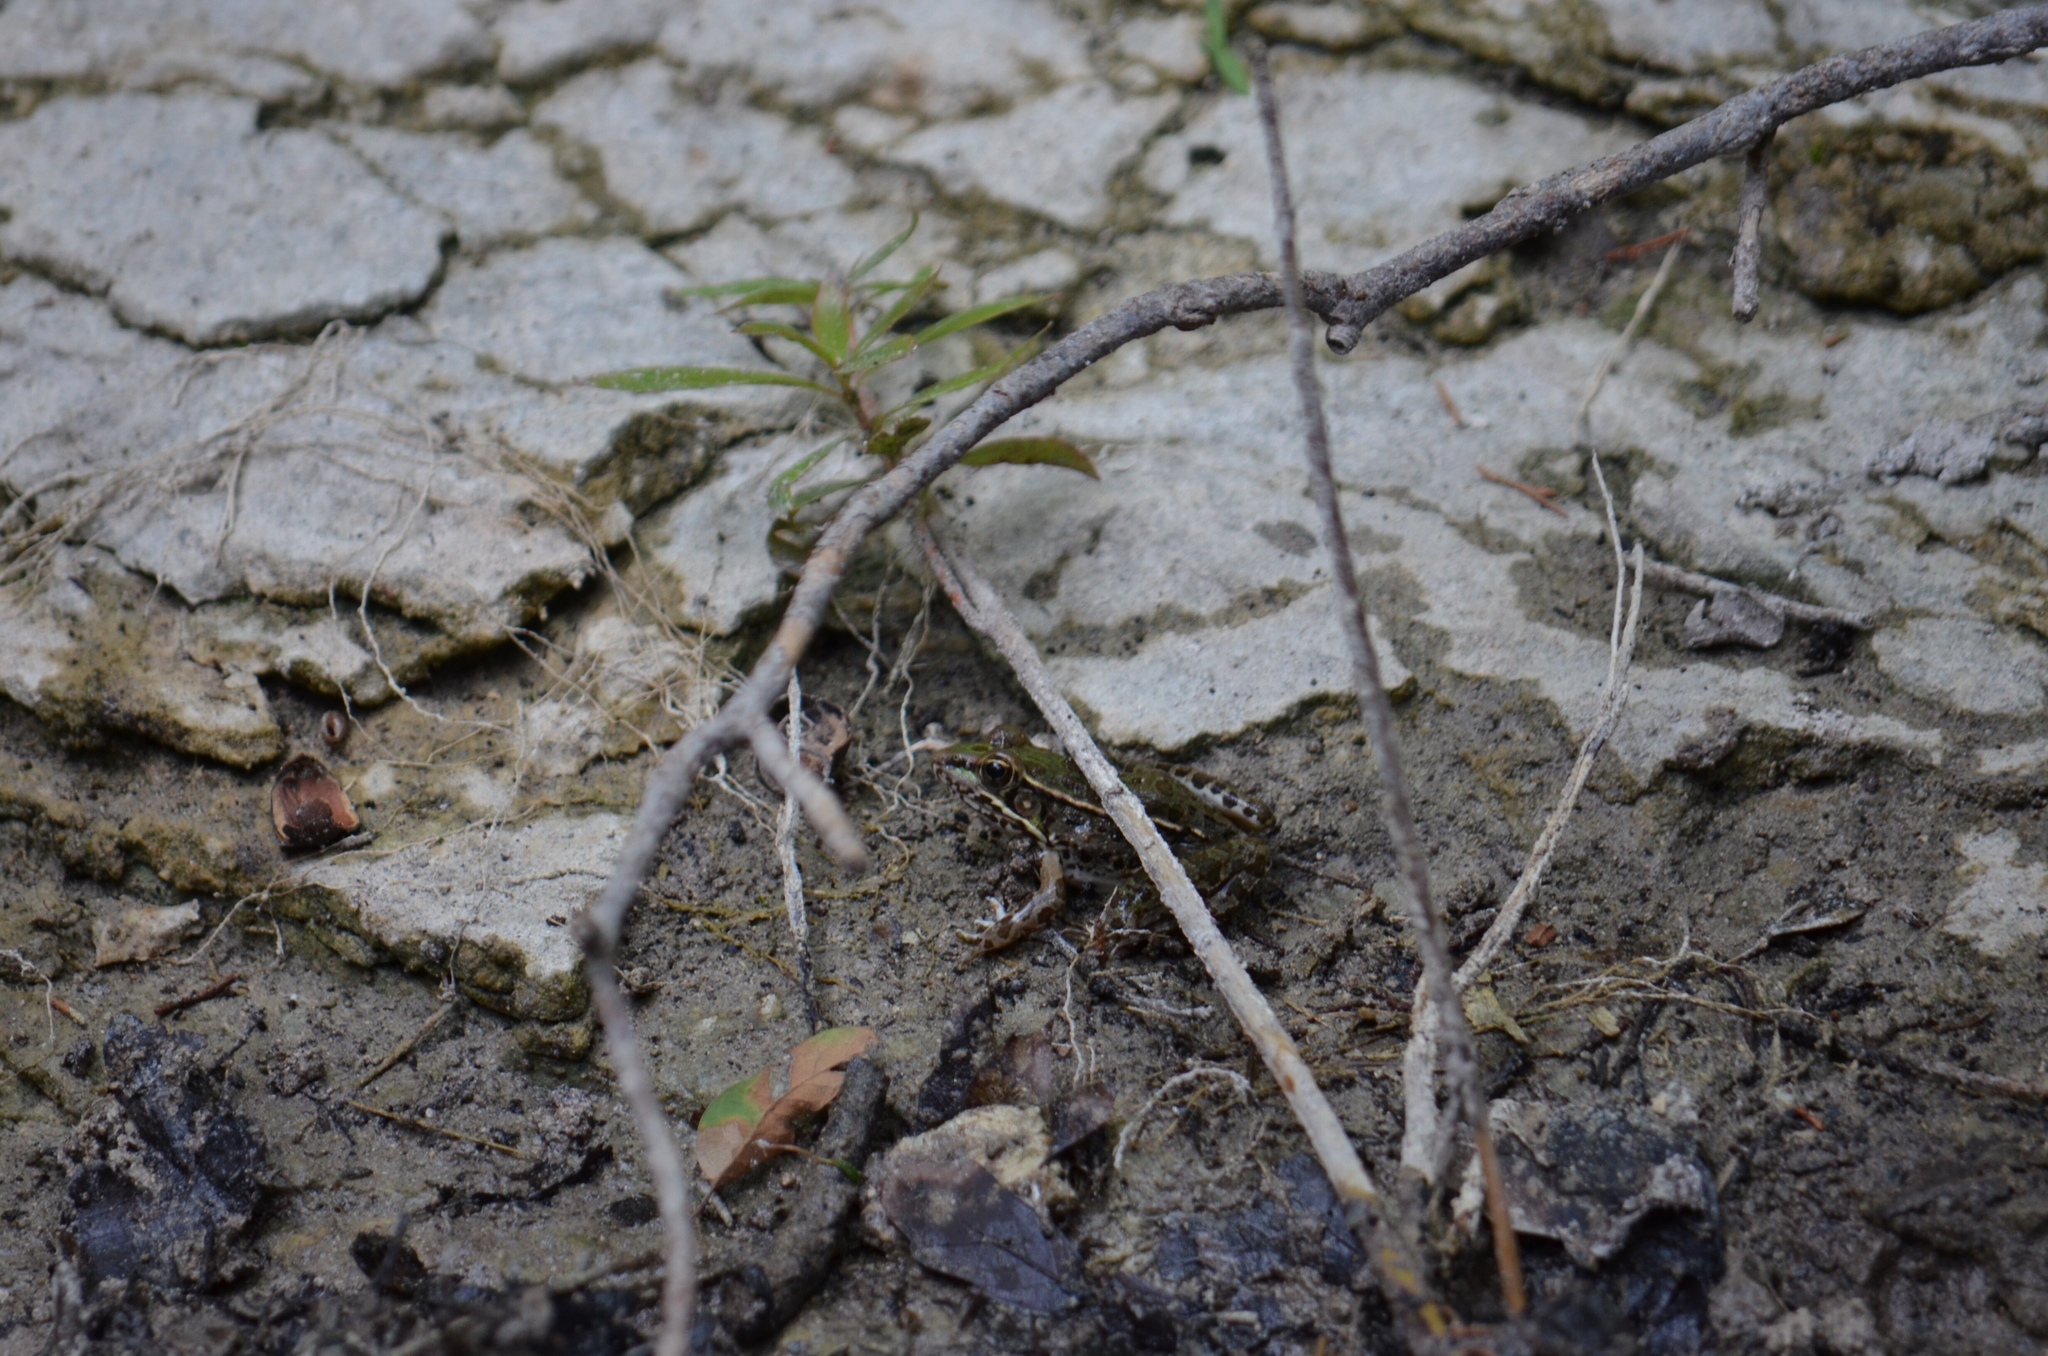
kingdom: Animalia
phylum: Chordata
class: Amphibia
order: Anura
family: Ranidae
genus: Lithobates
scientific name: Lithobates berlandieri
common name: Rio grande leopard frog
